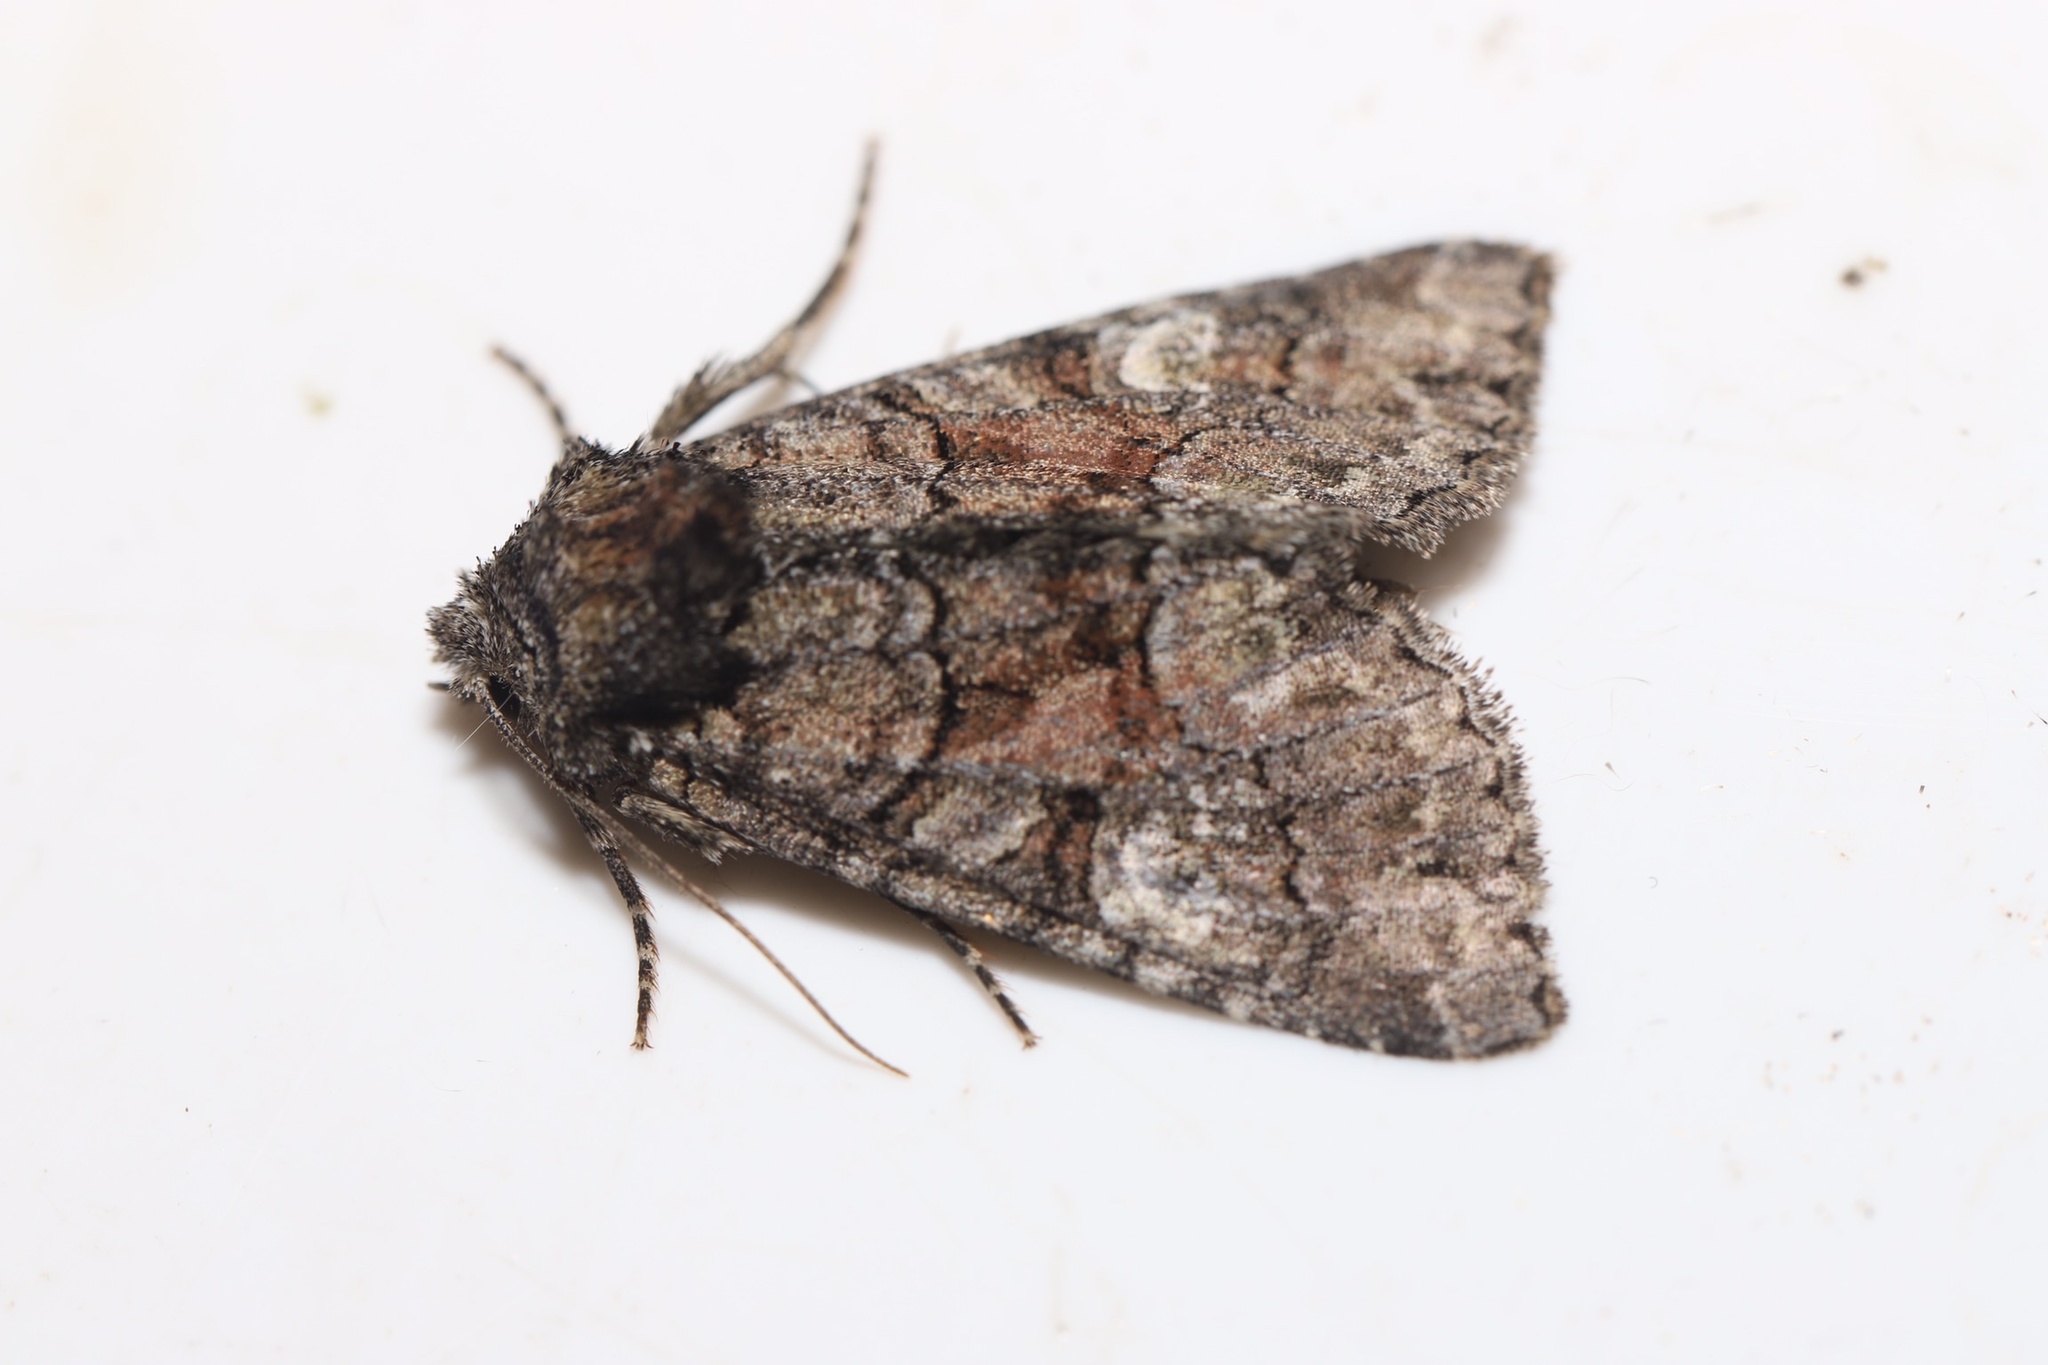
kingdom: Animalia
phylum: Arthropoda
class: Insecta
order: Lepidoptera
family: Noctuidae
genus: Fishia
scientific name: Fishia illocata
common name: Wandering brocade moth
